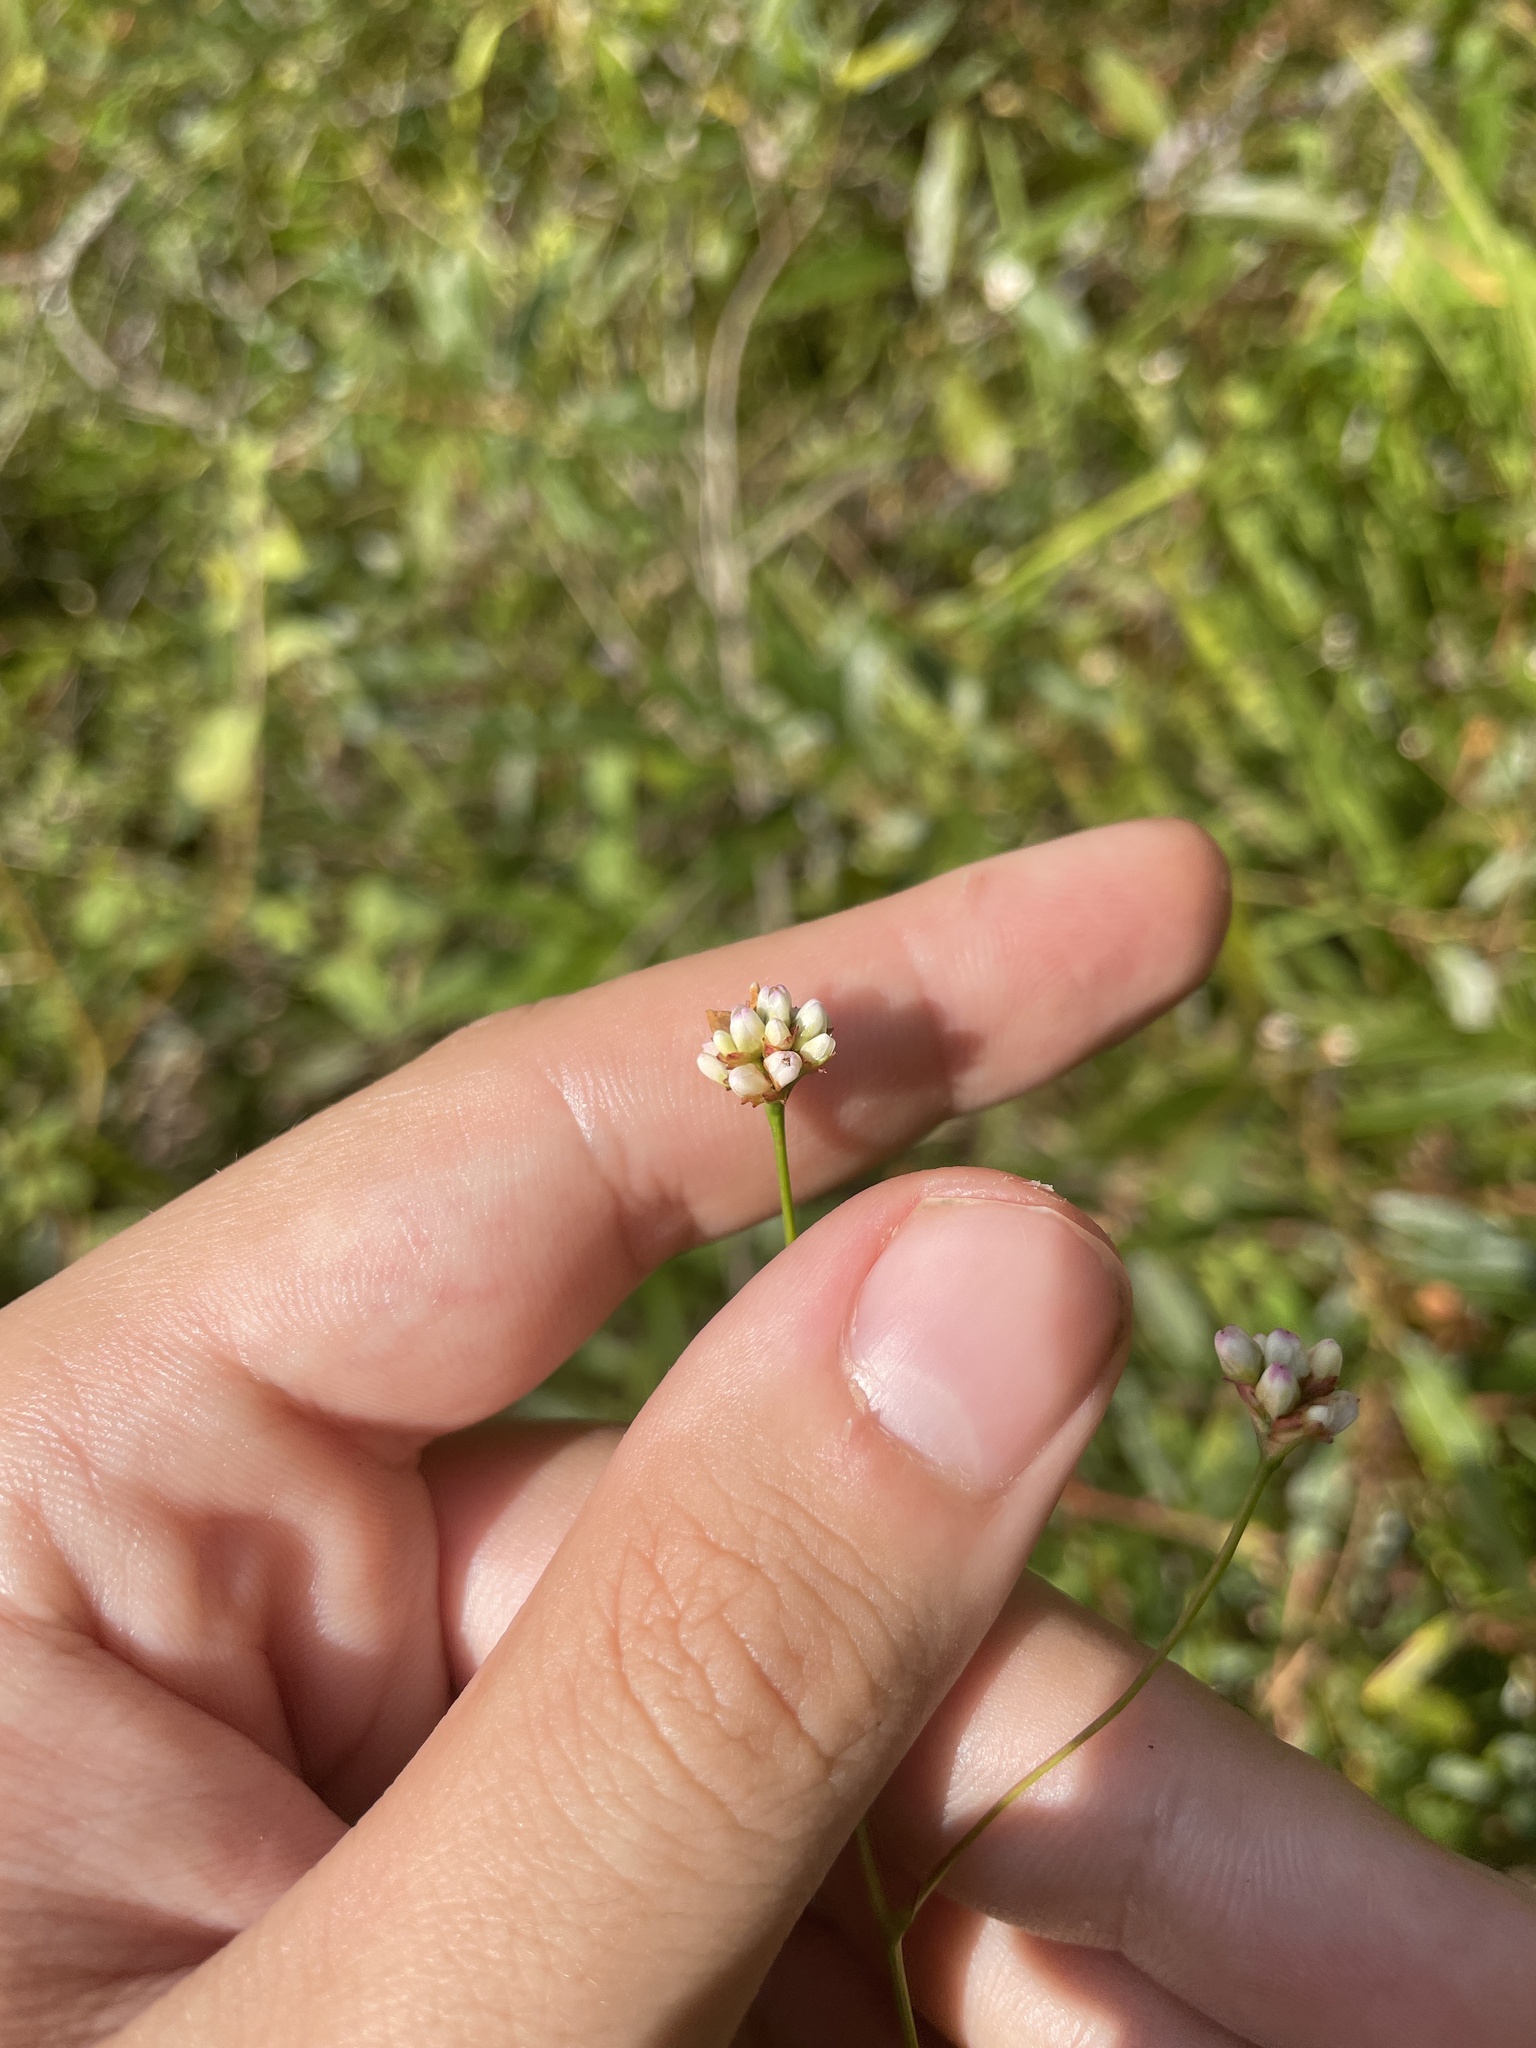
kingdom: Plantae
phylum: Tracheophyta
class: Magnoliopsida
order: Caryophyllales
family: Polygonaceae
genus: Persicaria
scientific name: Persicaria sagittata
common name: American tearthumb
